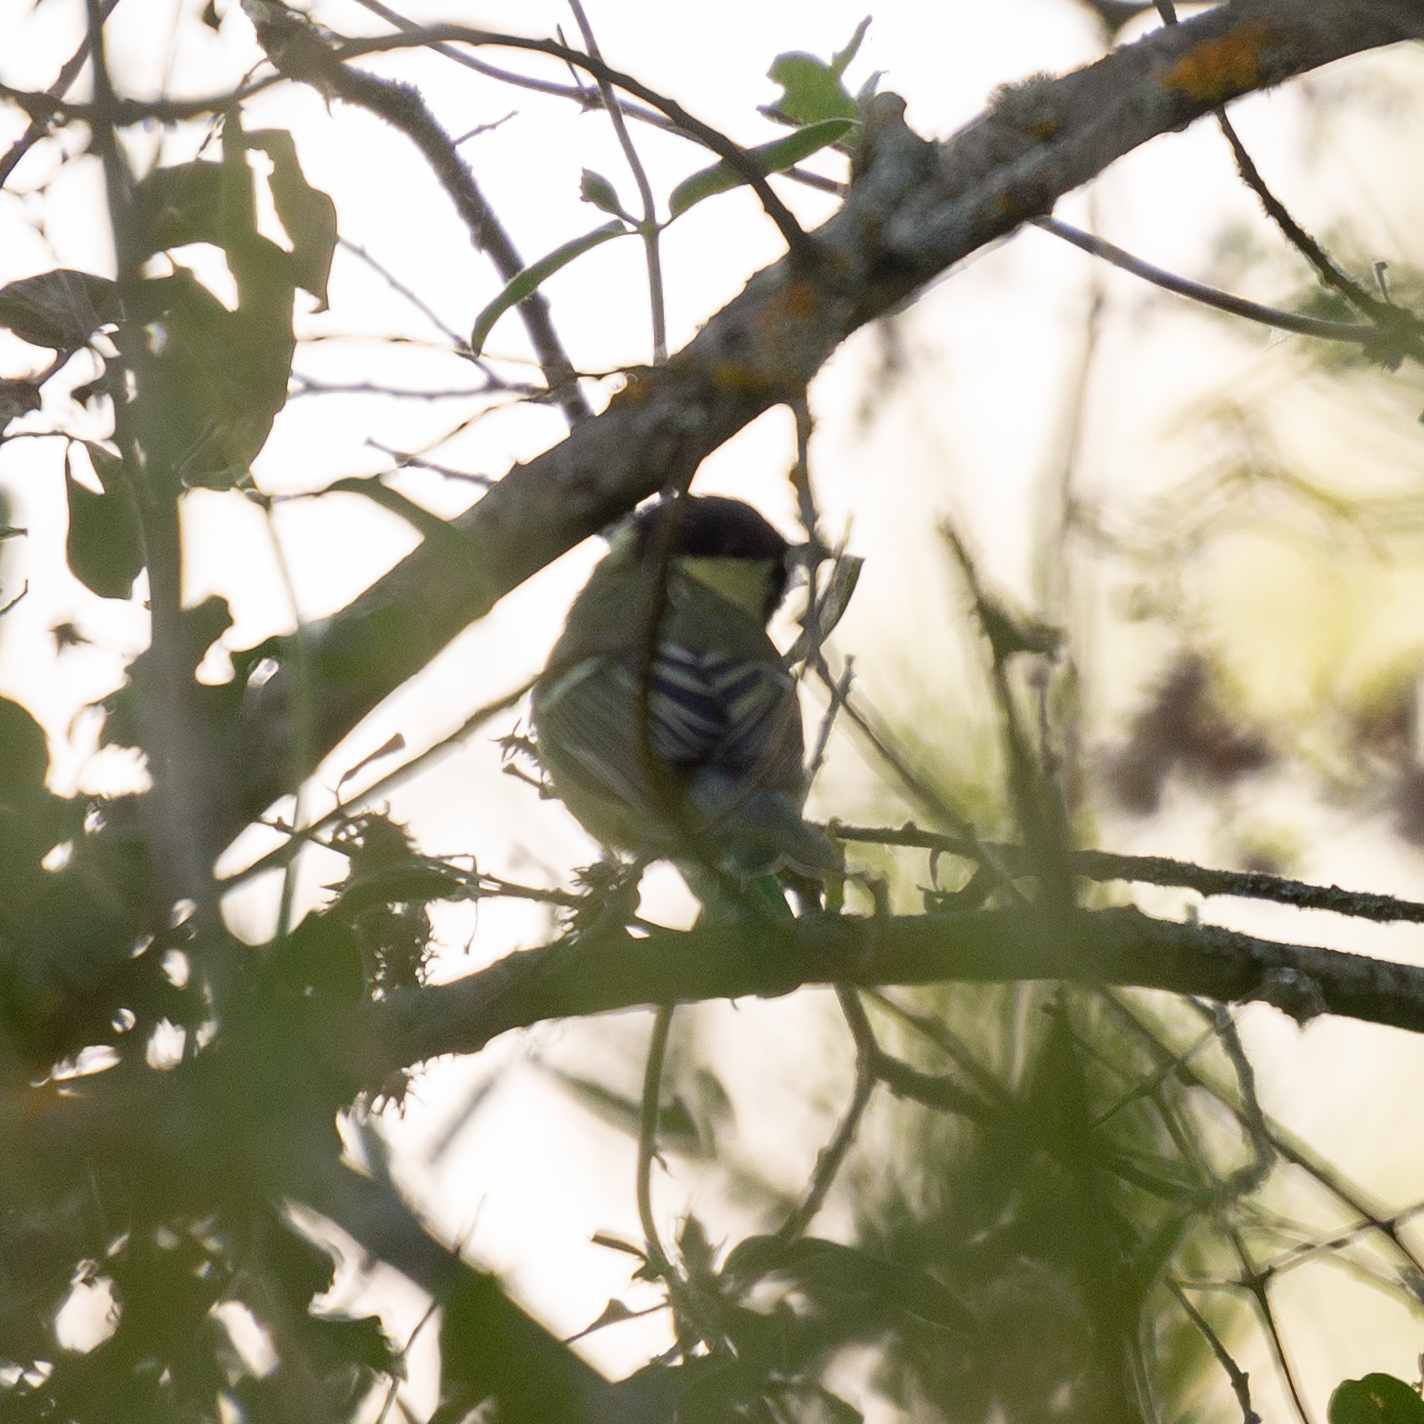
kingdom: Animalia
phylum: Chordata
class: Aves
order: Passeriformes
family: Paridae
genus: Parus
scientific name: Parus major
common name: Great tit
